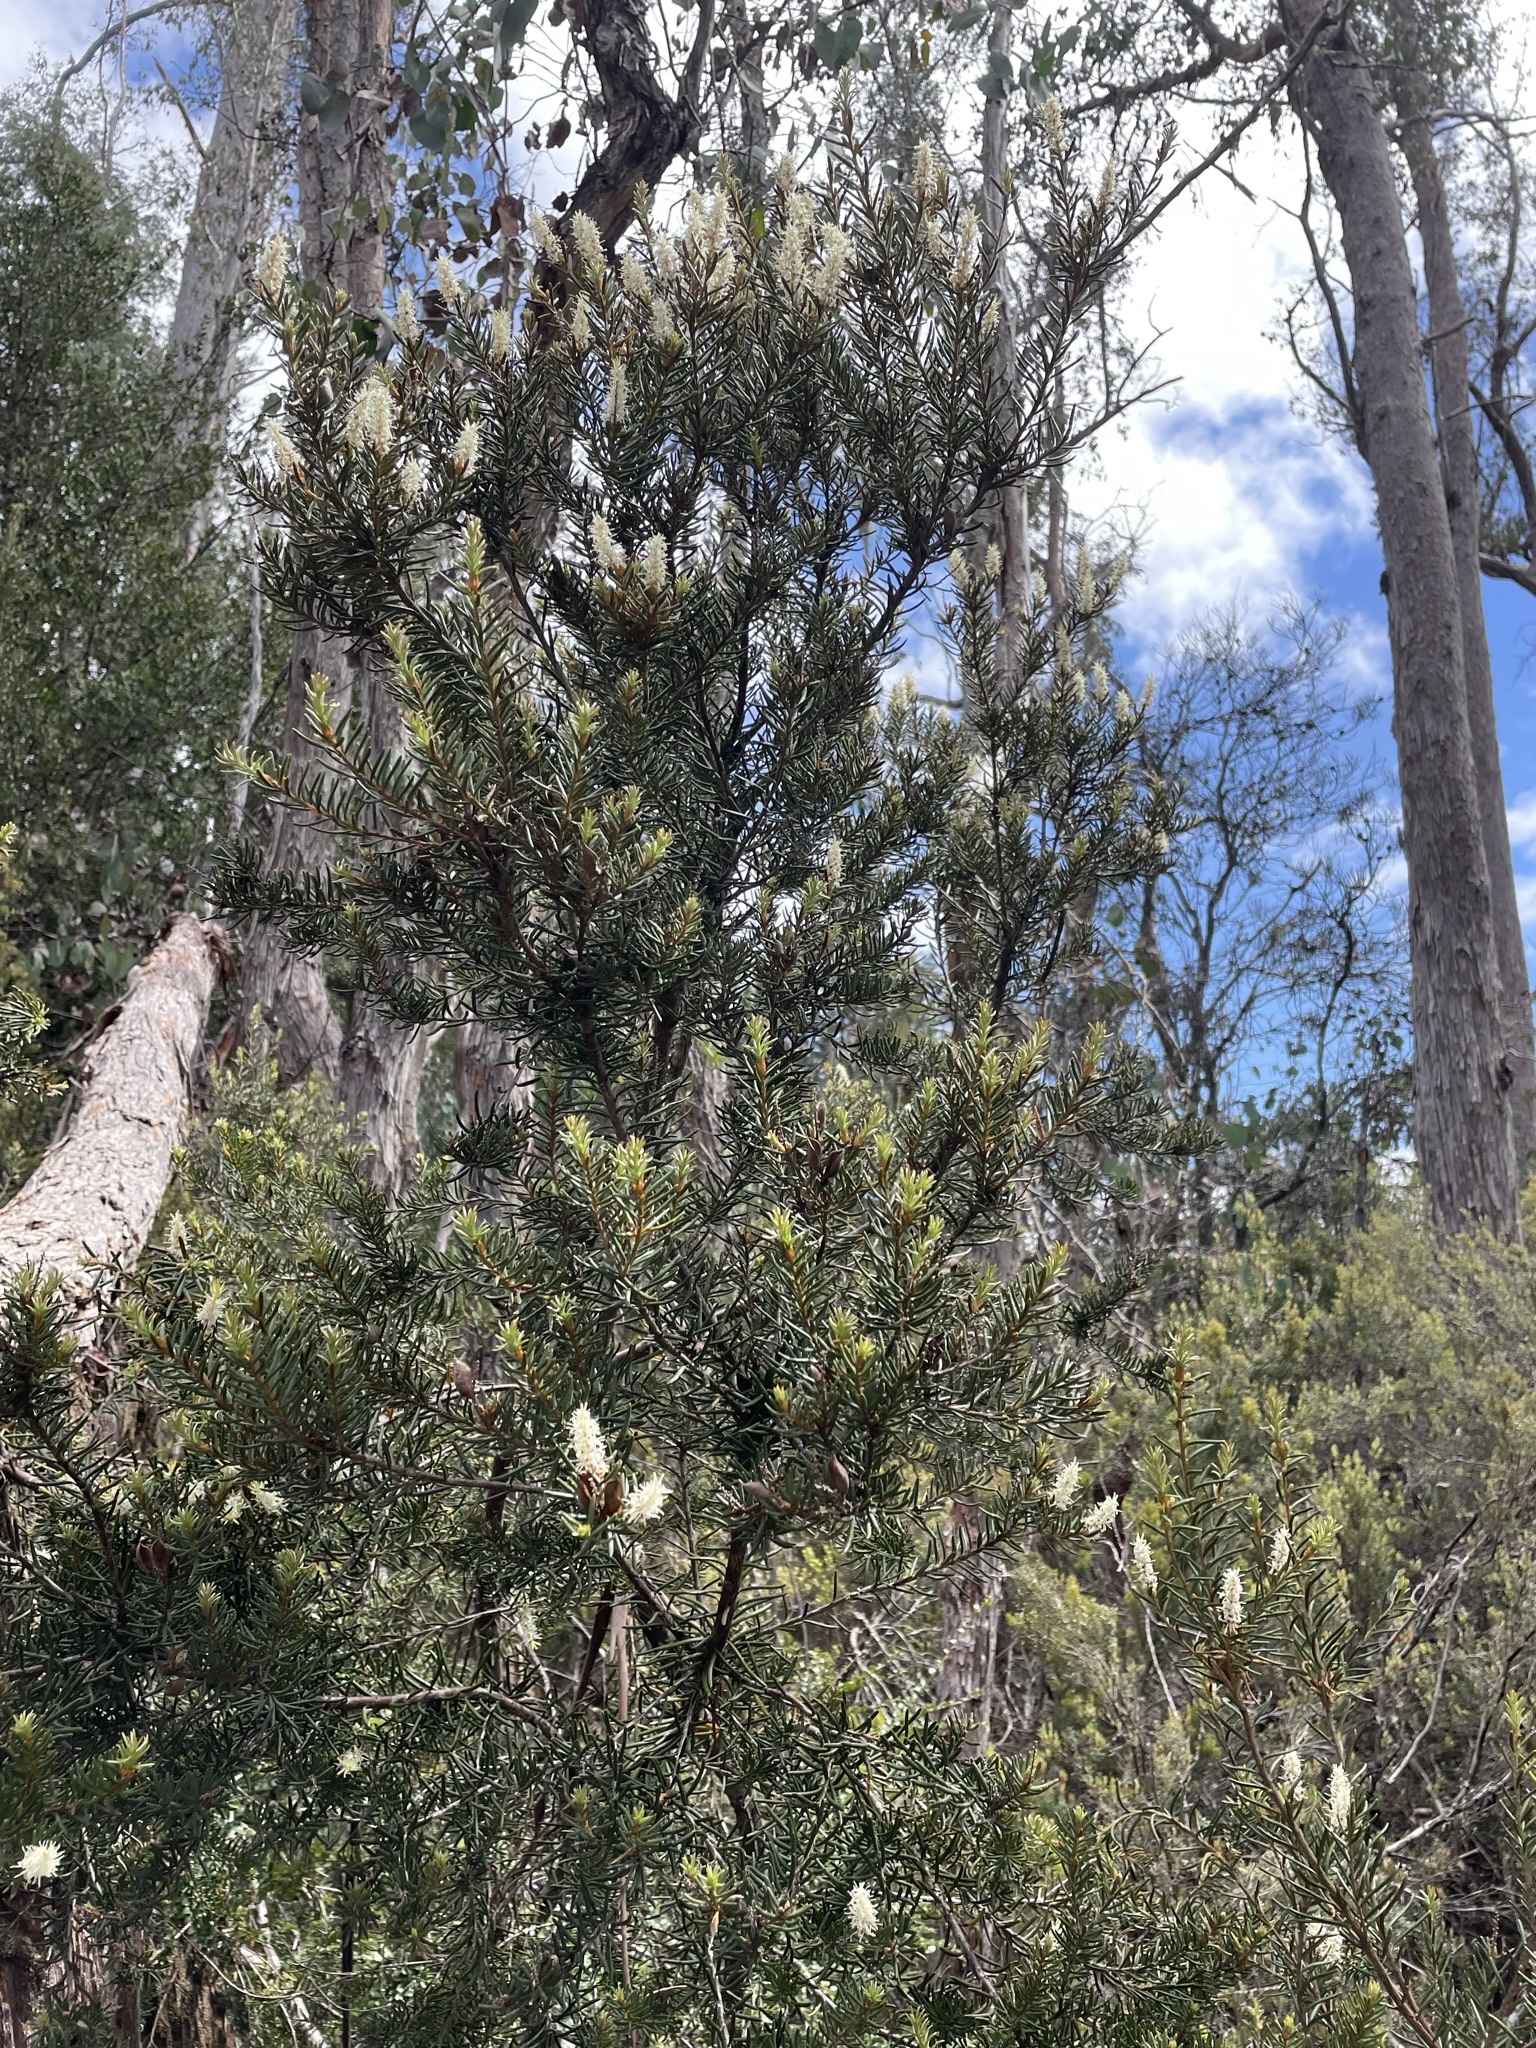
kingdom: Plantae
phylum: Tracheophyta
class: Magnoliopsida
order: Proteales
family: Proteaceae
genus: Orites
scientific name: Orites revolutus
